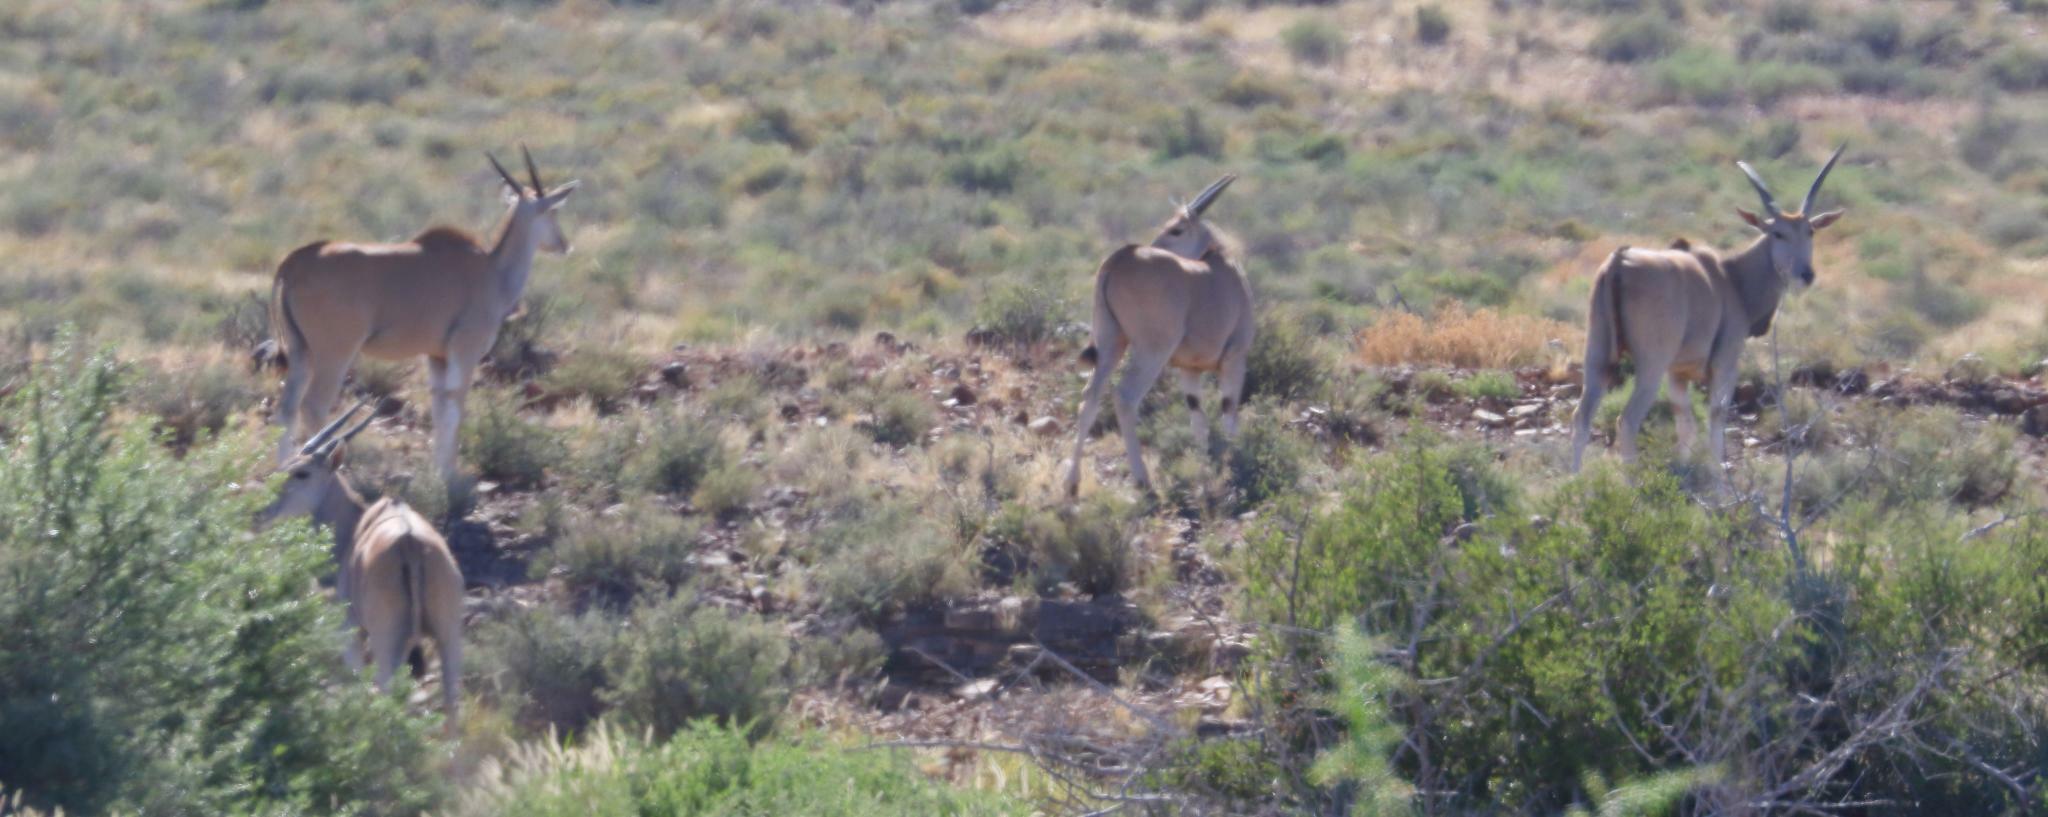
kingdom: Animalia
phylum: Chordata
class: Mammalia
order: Artiodactyla
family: Bovidae
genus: Taurotragus
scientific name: Taurotragus oryx
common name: Common eland
